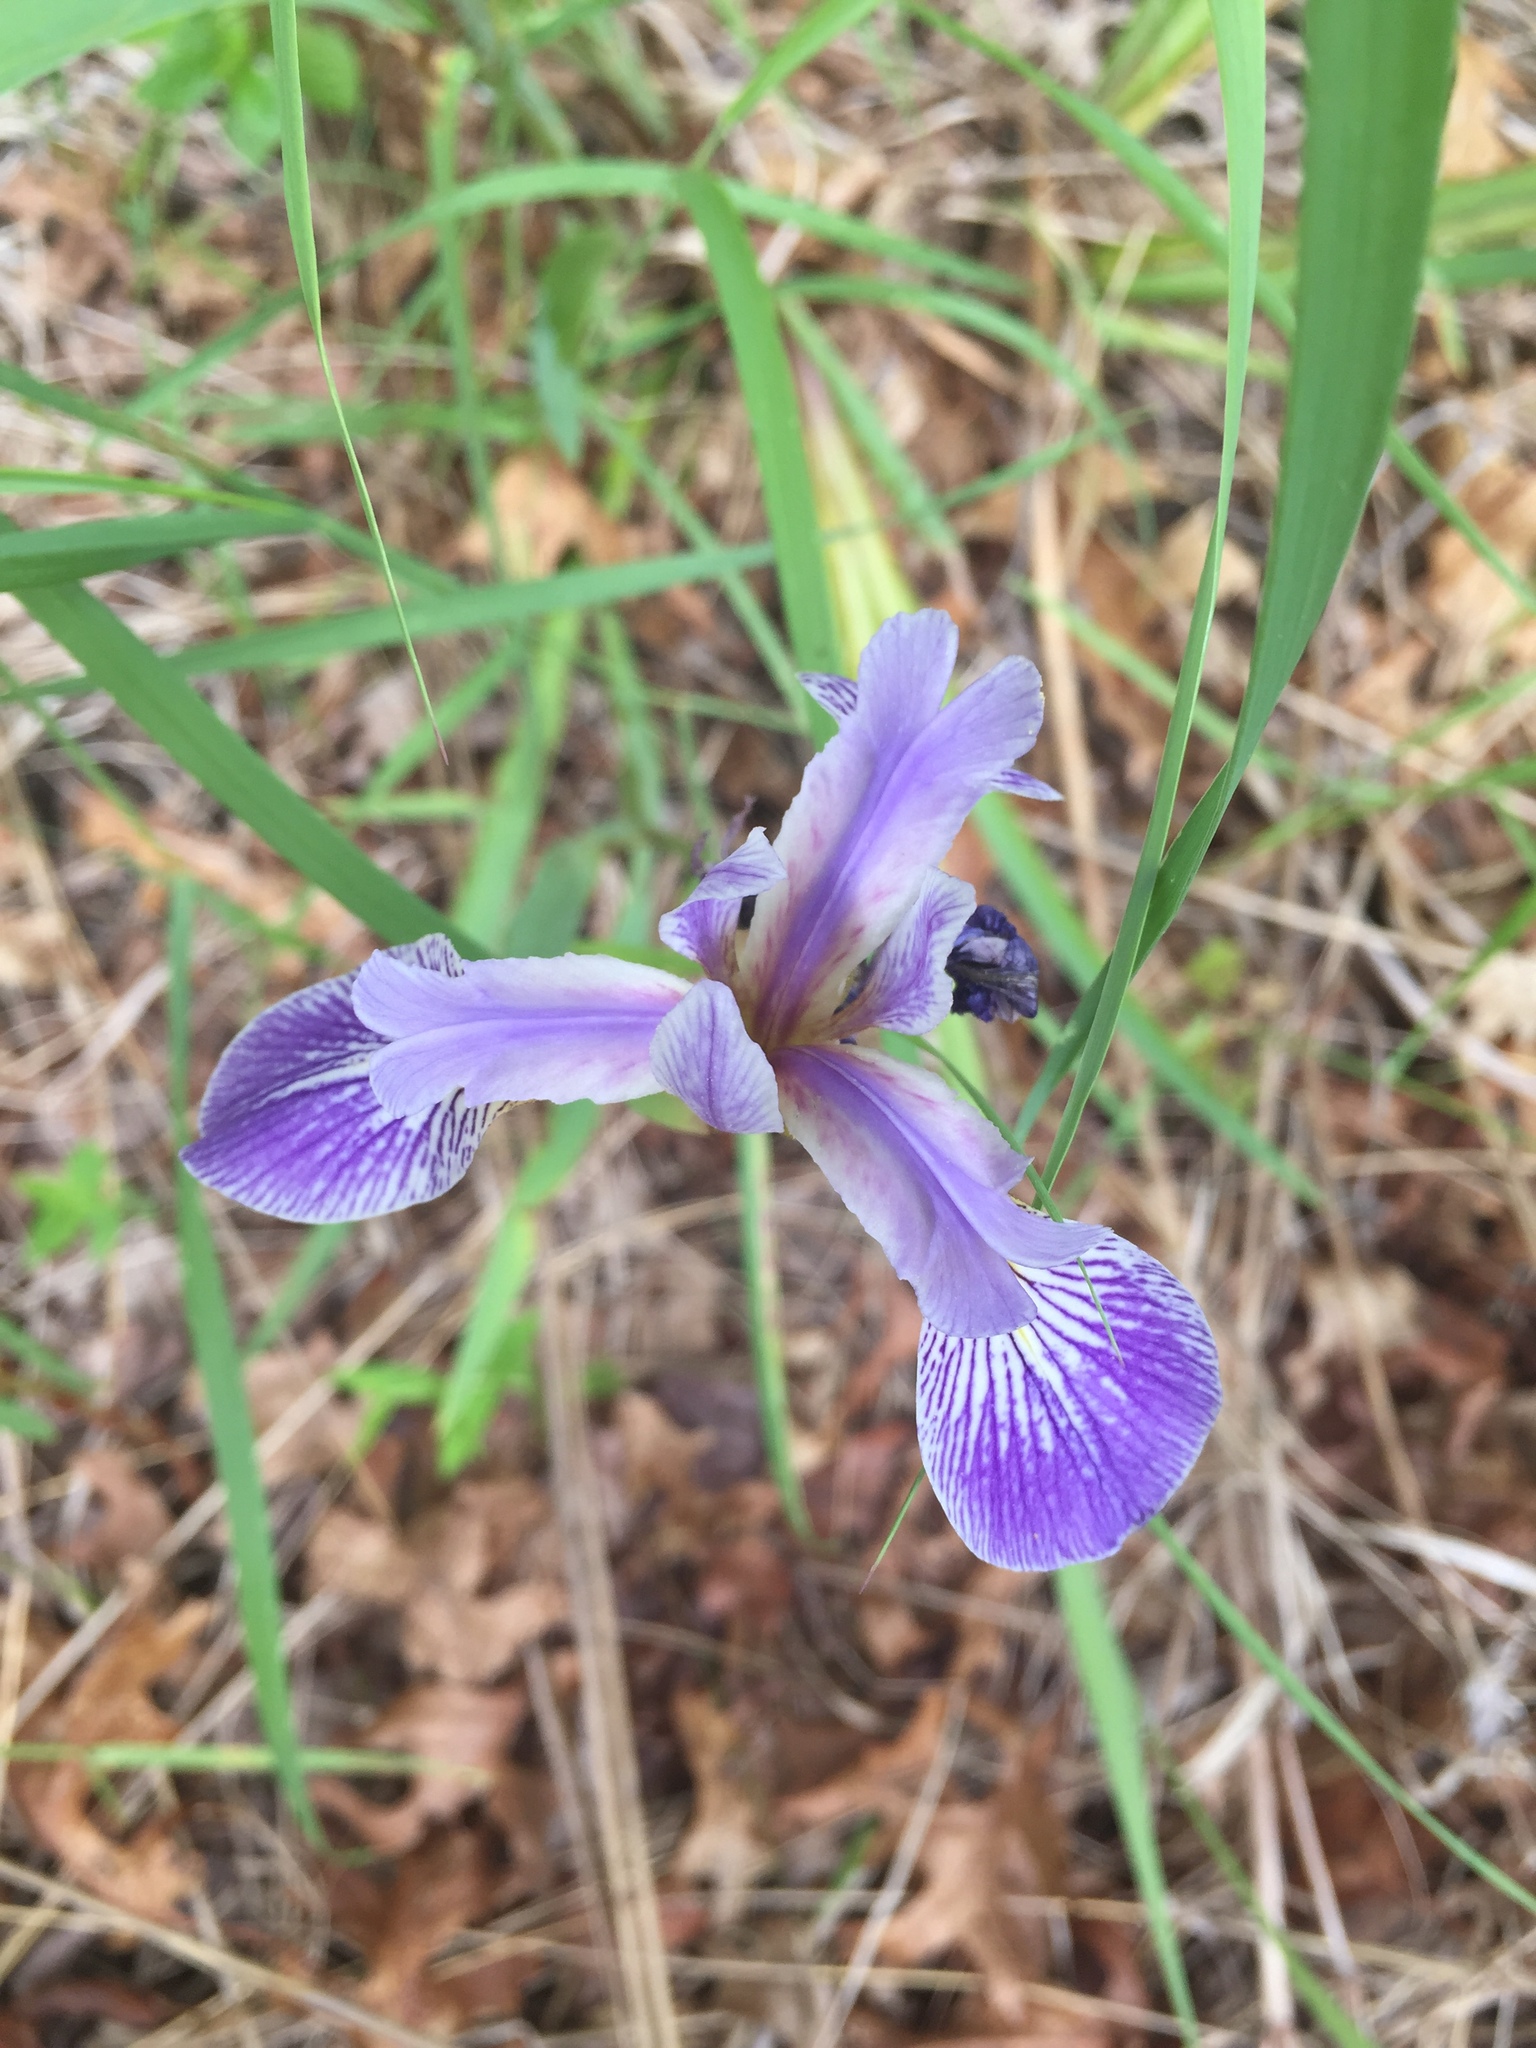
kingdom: Plantae
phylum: Tracheophyta
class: Liliopsida
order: Asparagales
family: Iridaceae
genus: Iris
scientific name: Iris versicolor
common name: Purple iris
